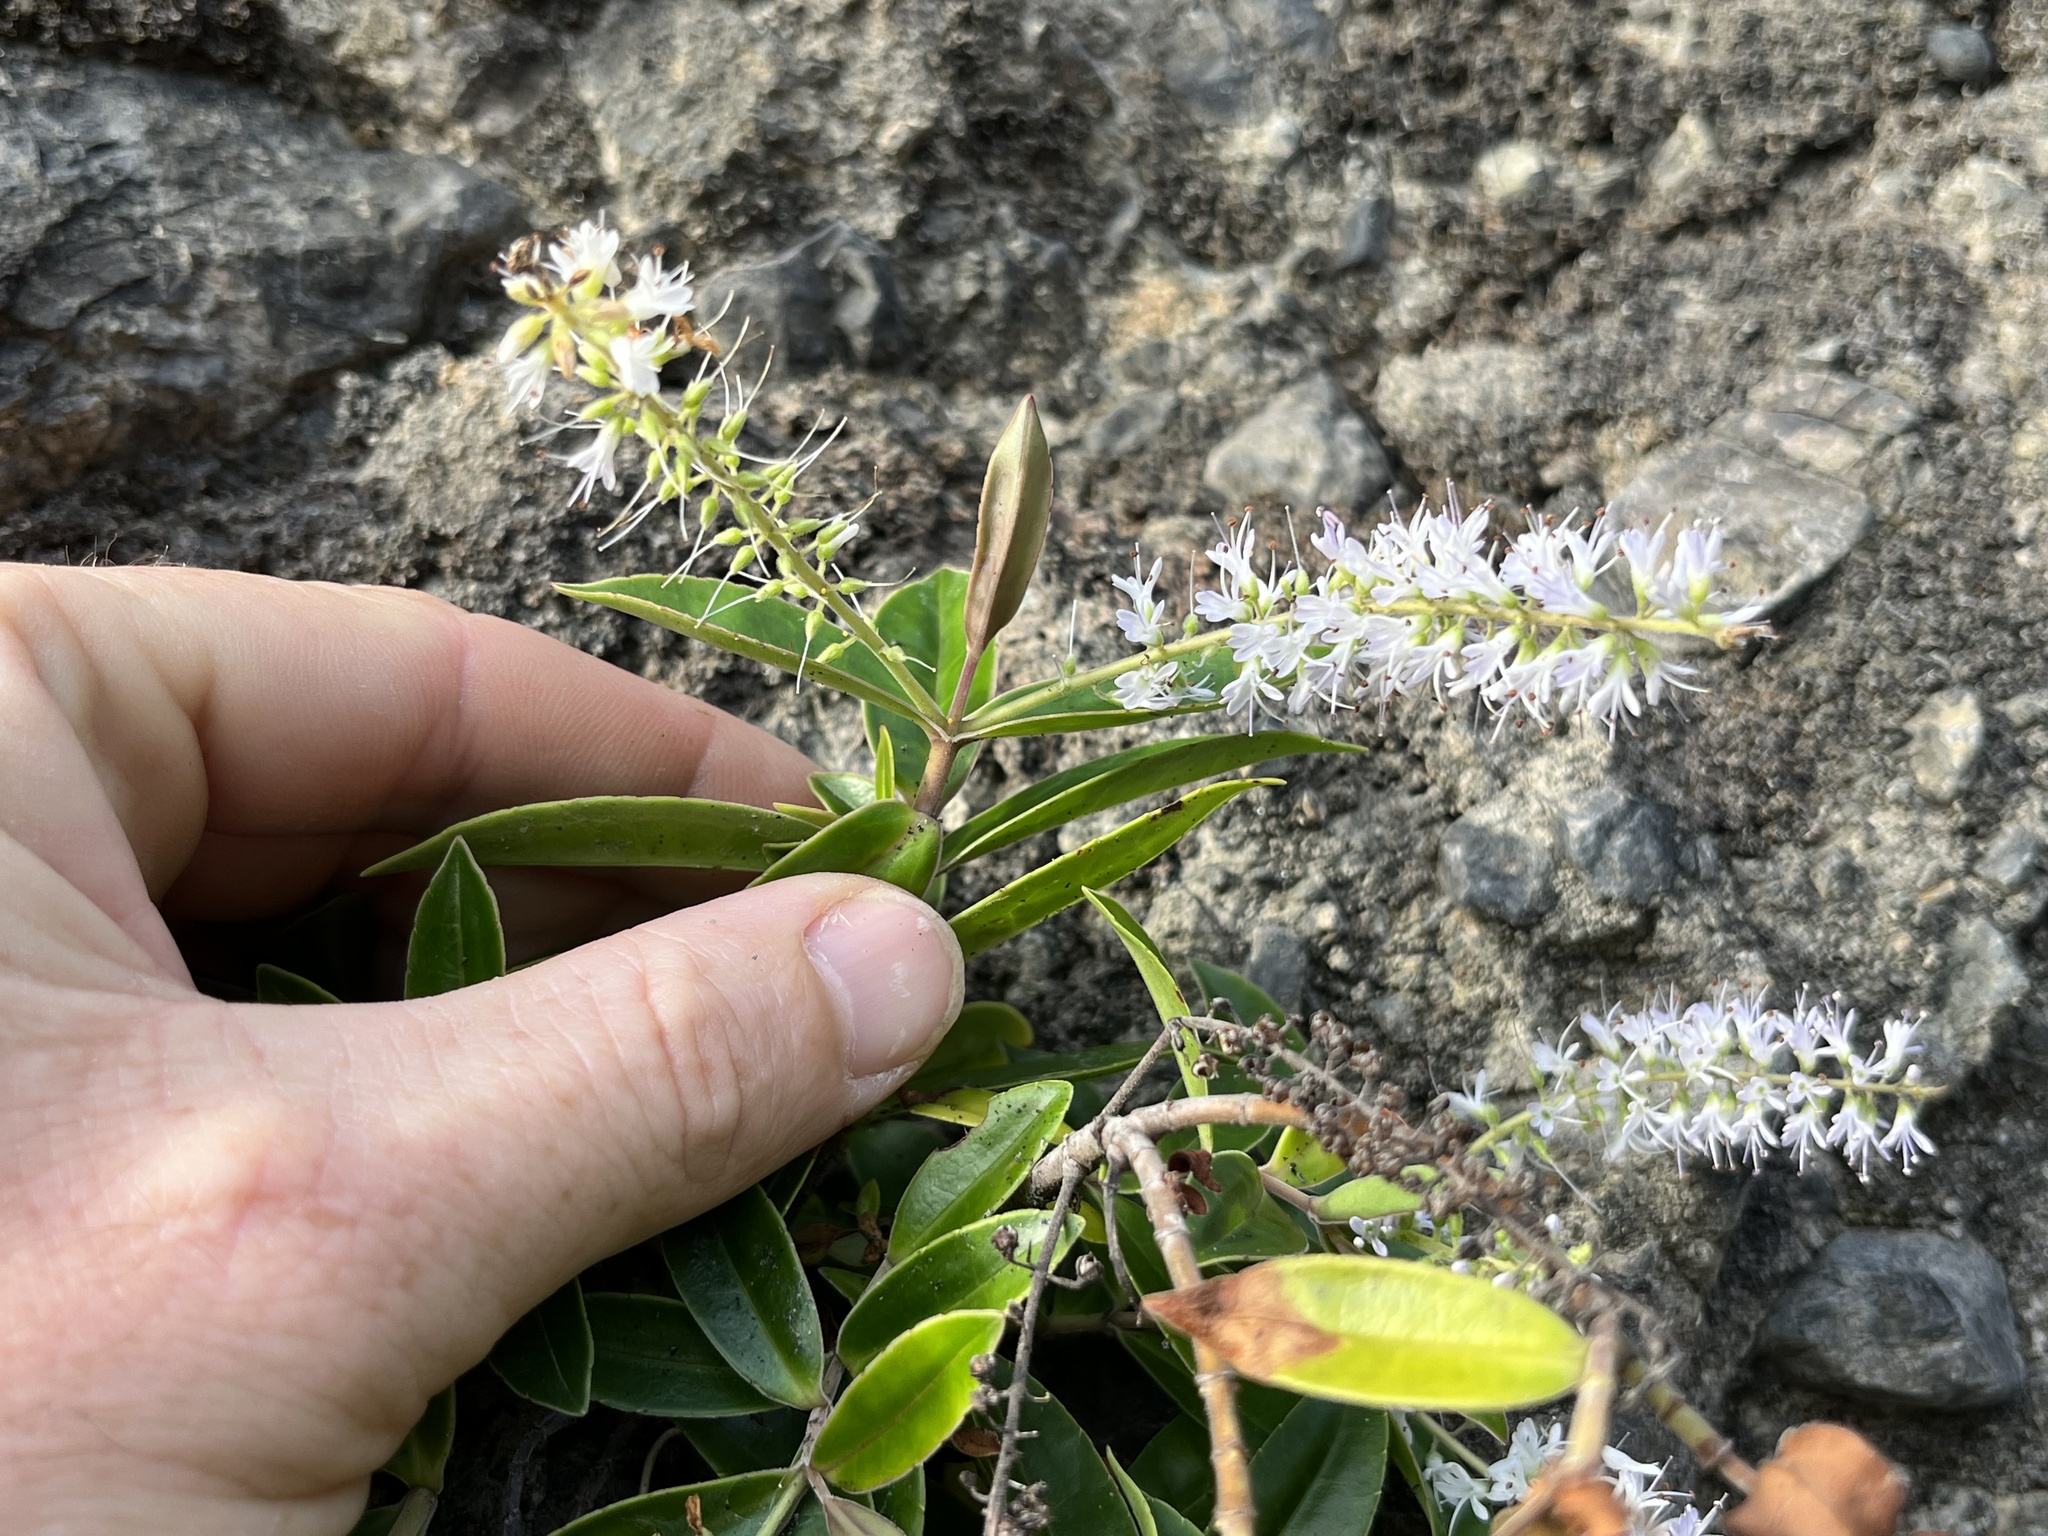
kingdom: Plantae
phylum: Tracheophyta
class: Magnoliopsida
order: Lamiales
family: Plantaginaceae
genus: Veronica
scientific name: Veronica stricta
